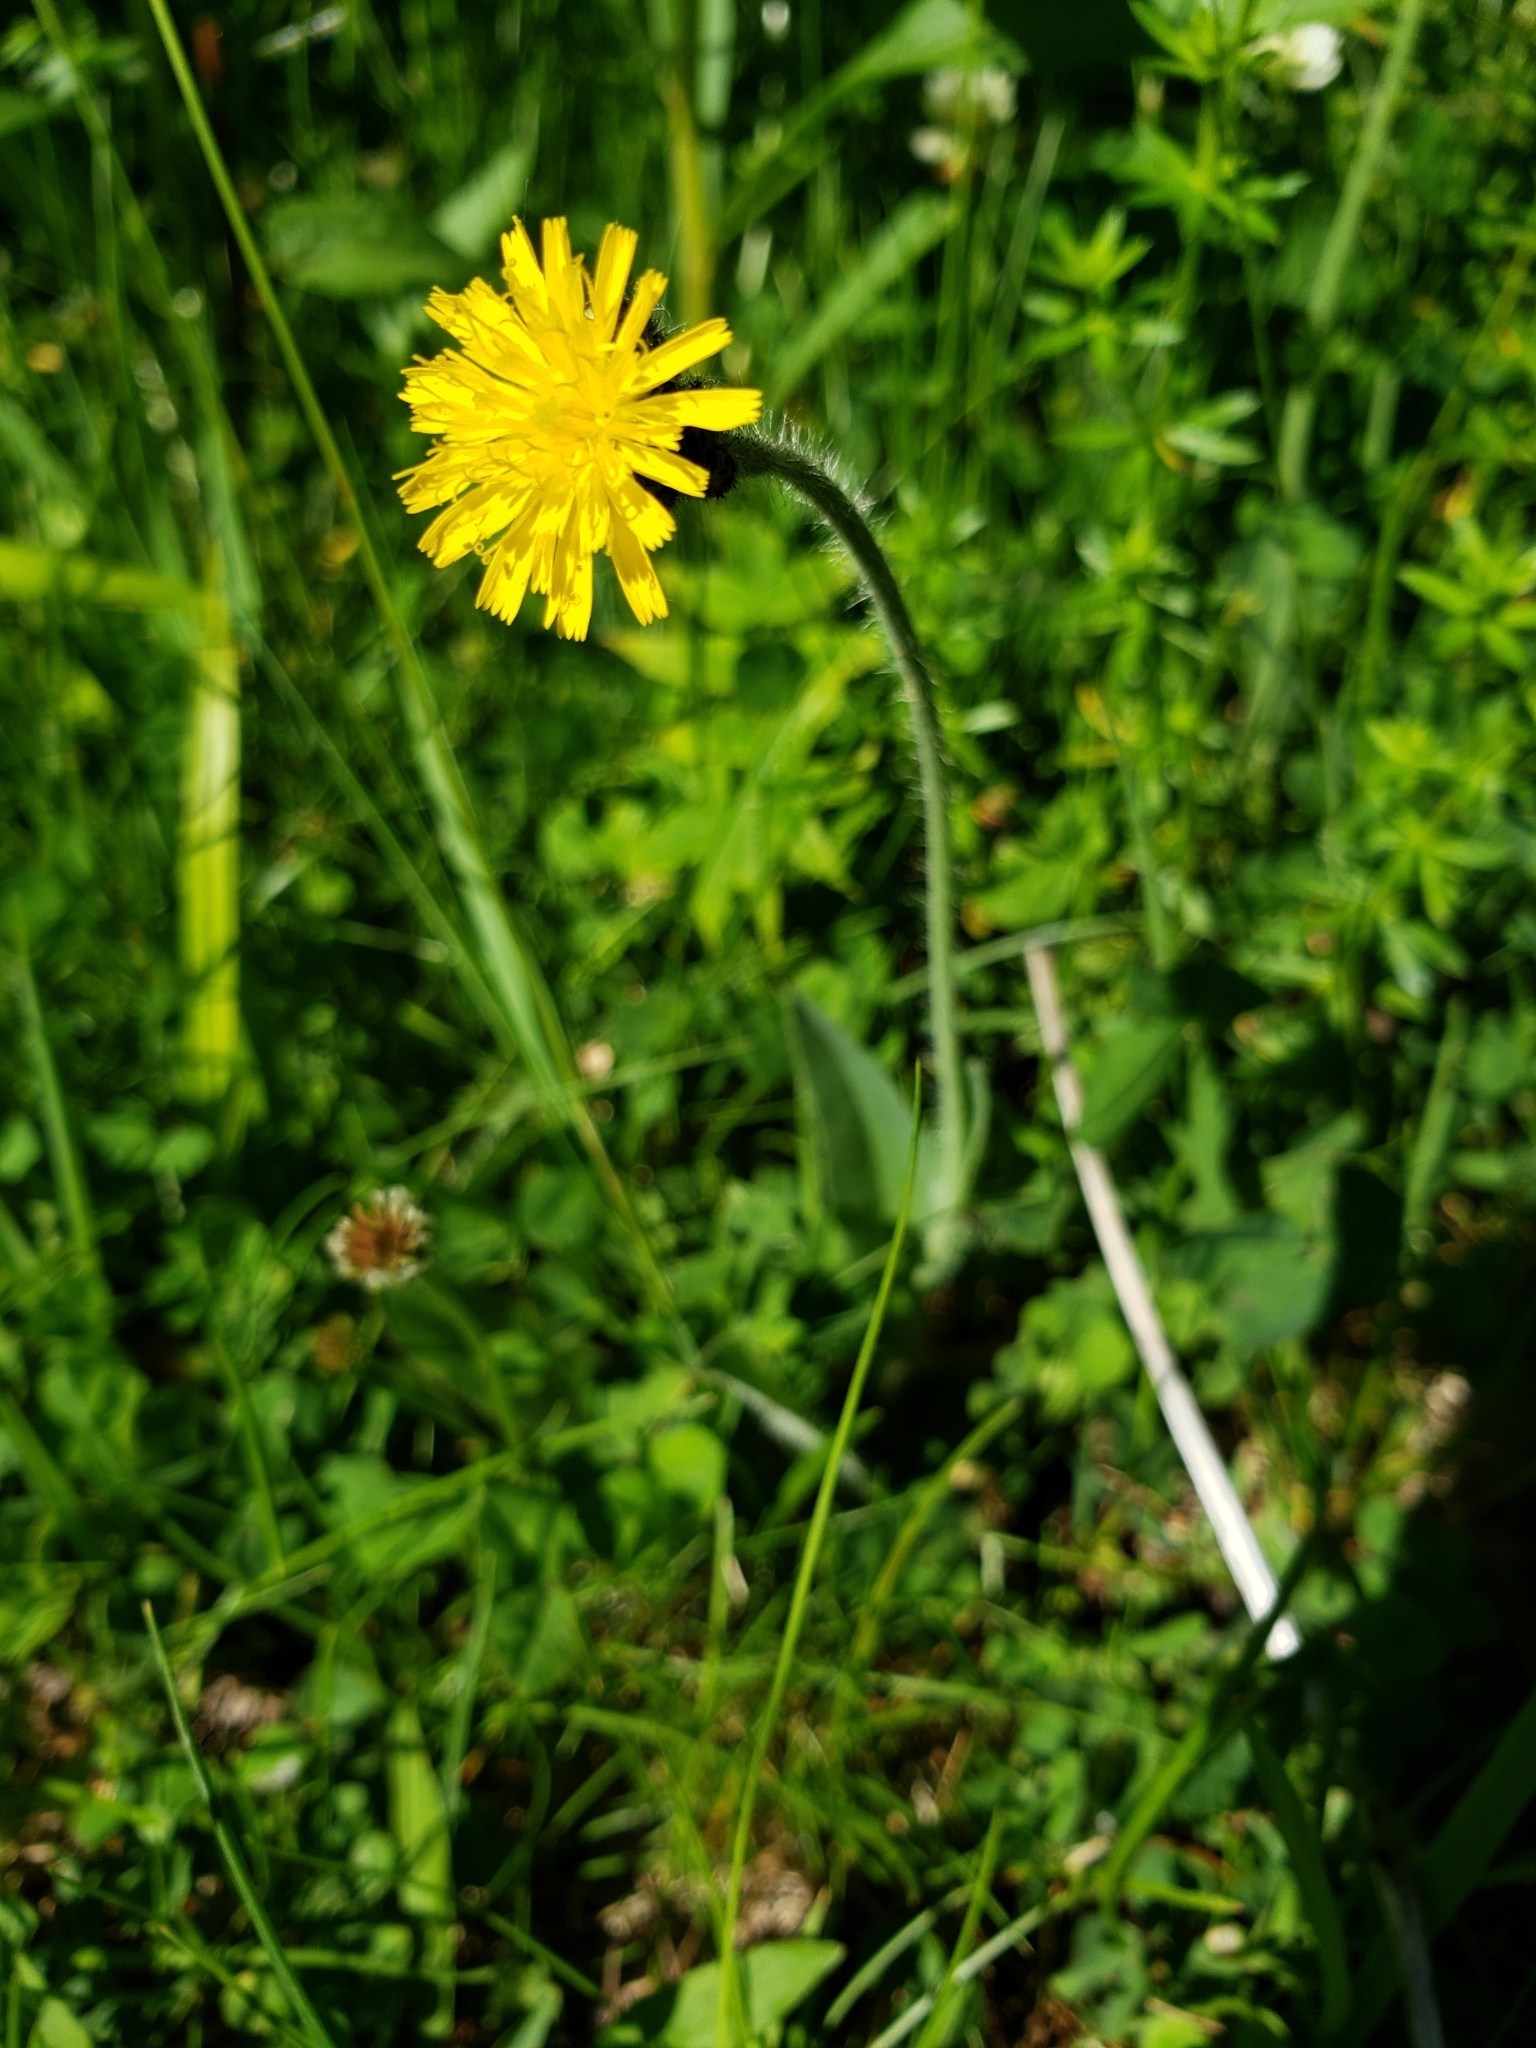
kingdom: Plantae
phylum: Tracheophyta
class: Magnoliopsida
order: Asterales
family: Asteraceae
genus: Pilosella
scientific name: Pilosella caespitosa
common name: Yellow fox-and-cubs
